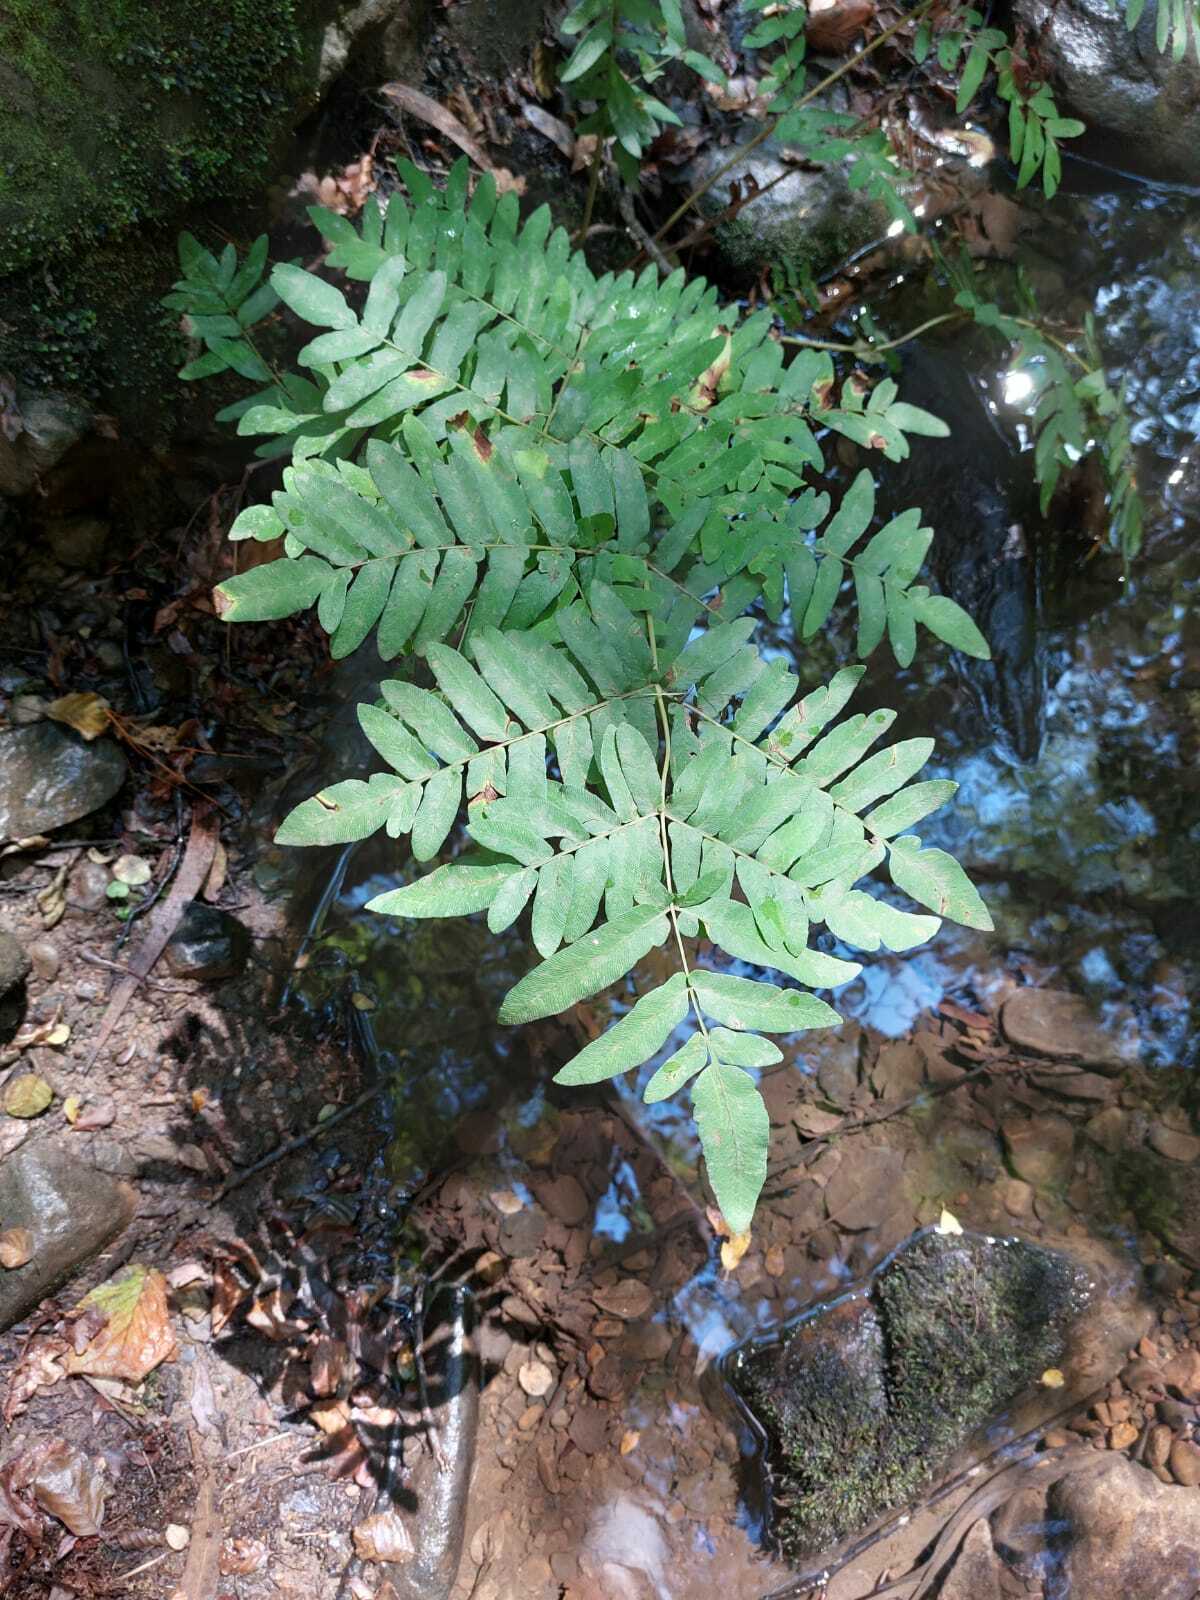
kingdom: Plantae
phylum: Tracheophyta
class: Polypodiopsida
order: Osmundales
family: Osmundaceae
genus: Osmunda
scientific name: Osmunda regalis
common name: Royal fern
